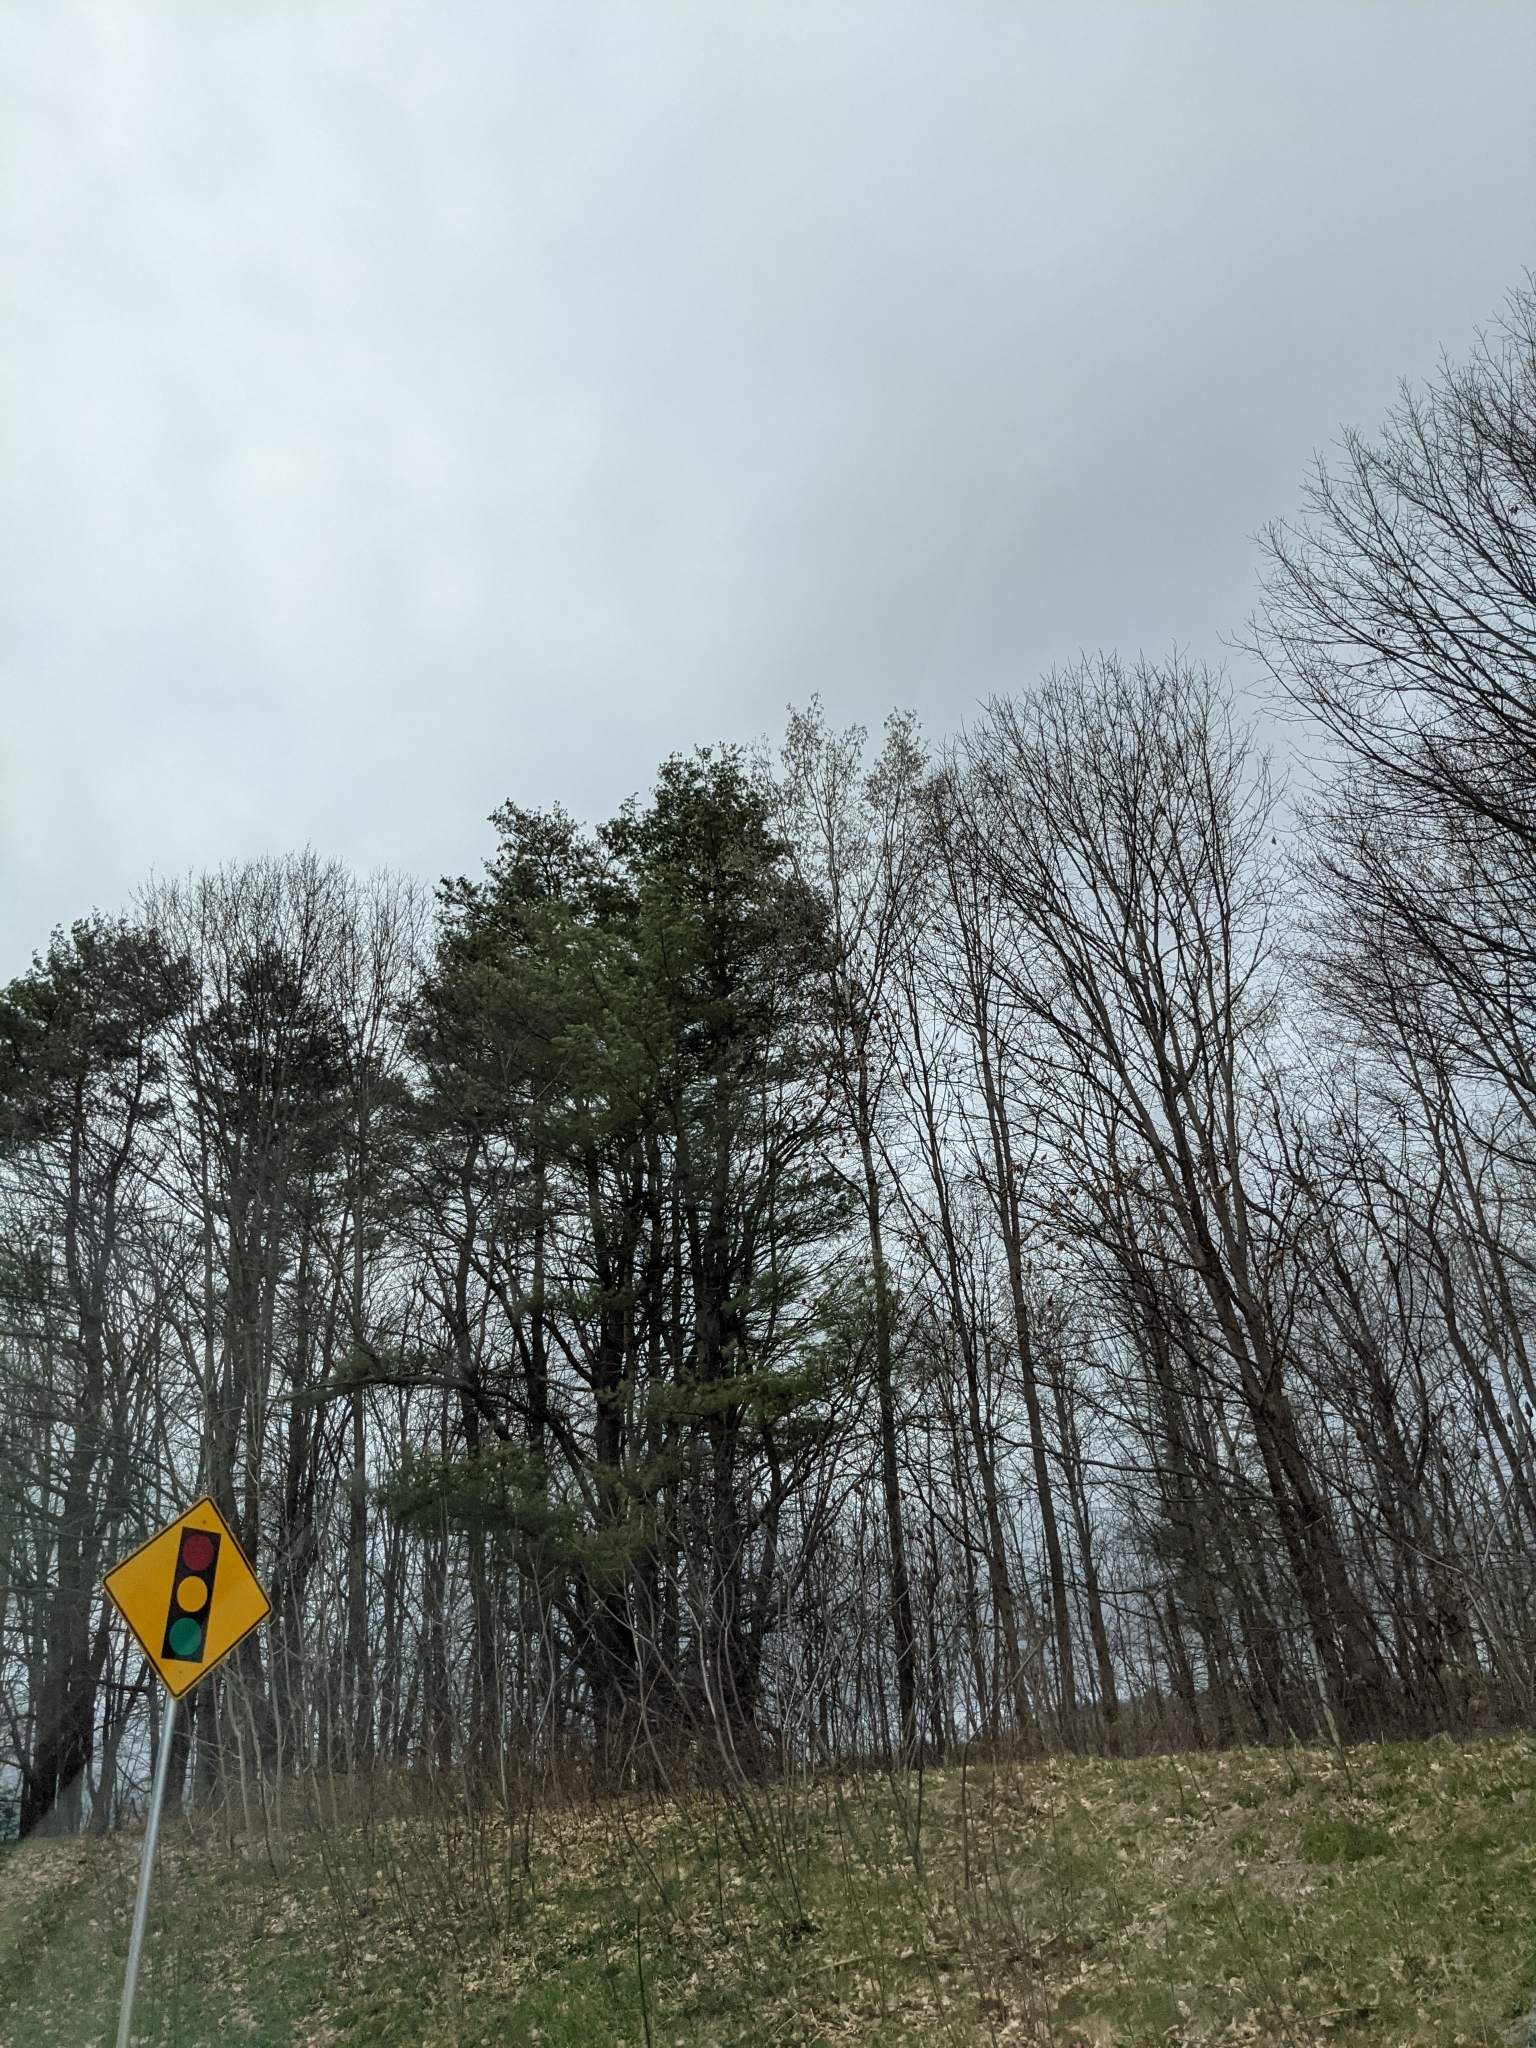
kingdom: Plantae
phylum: Tracheophyta
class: Pinopsida
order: Pinales
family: Pinaceae
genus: Pinus
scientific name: Pinus strobus
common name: Weymouth pine
